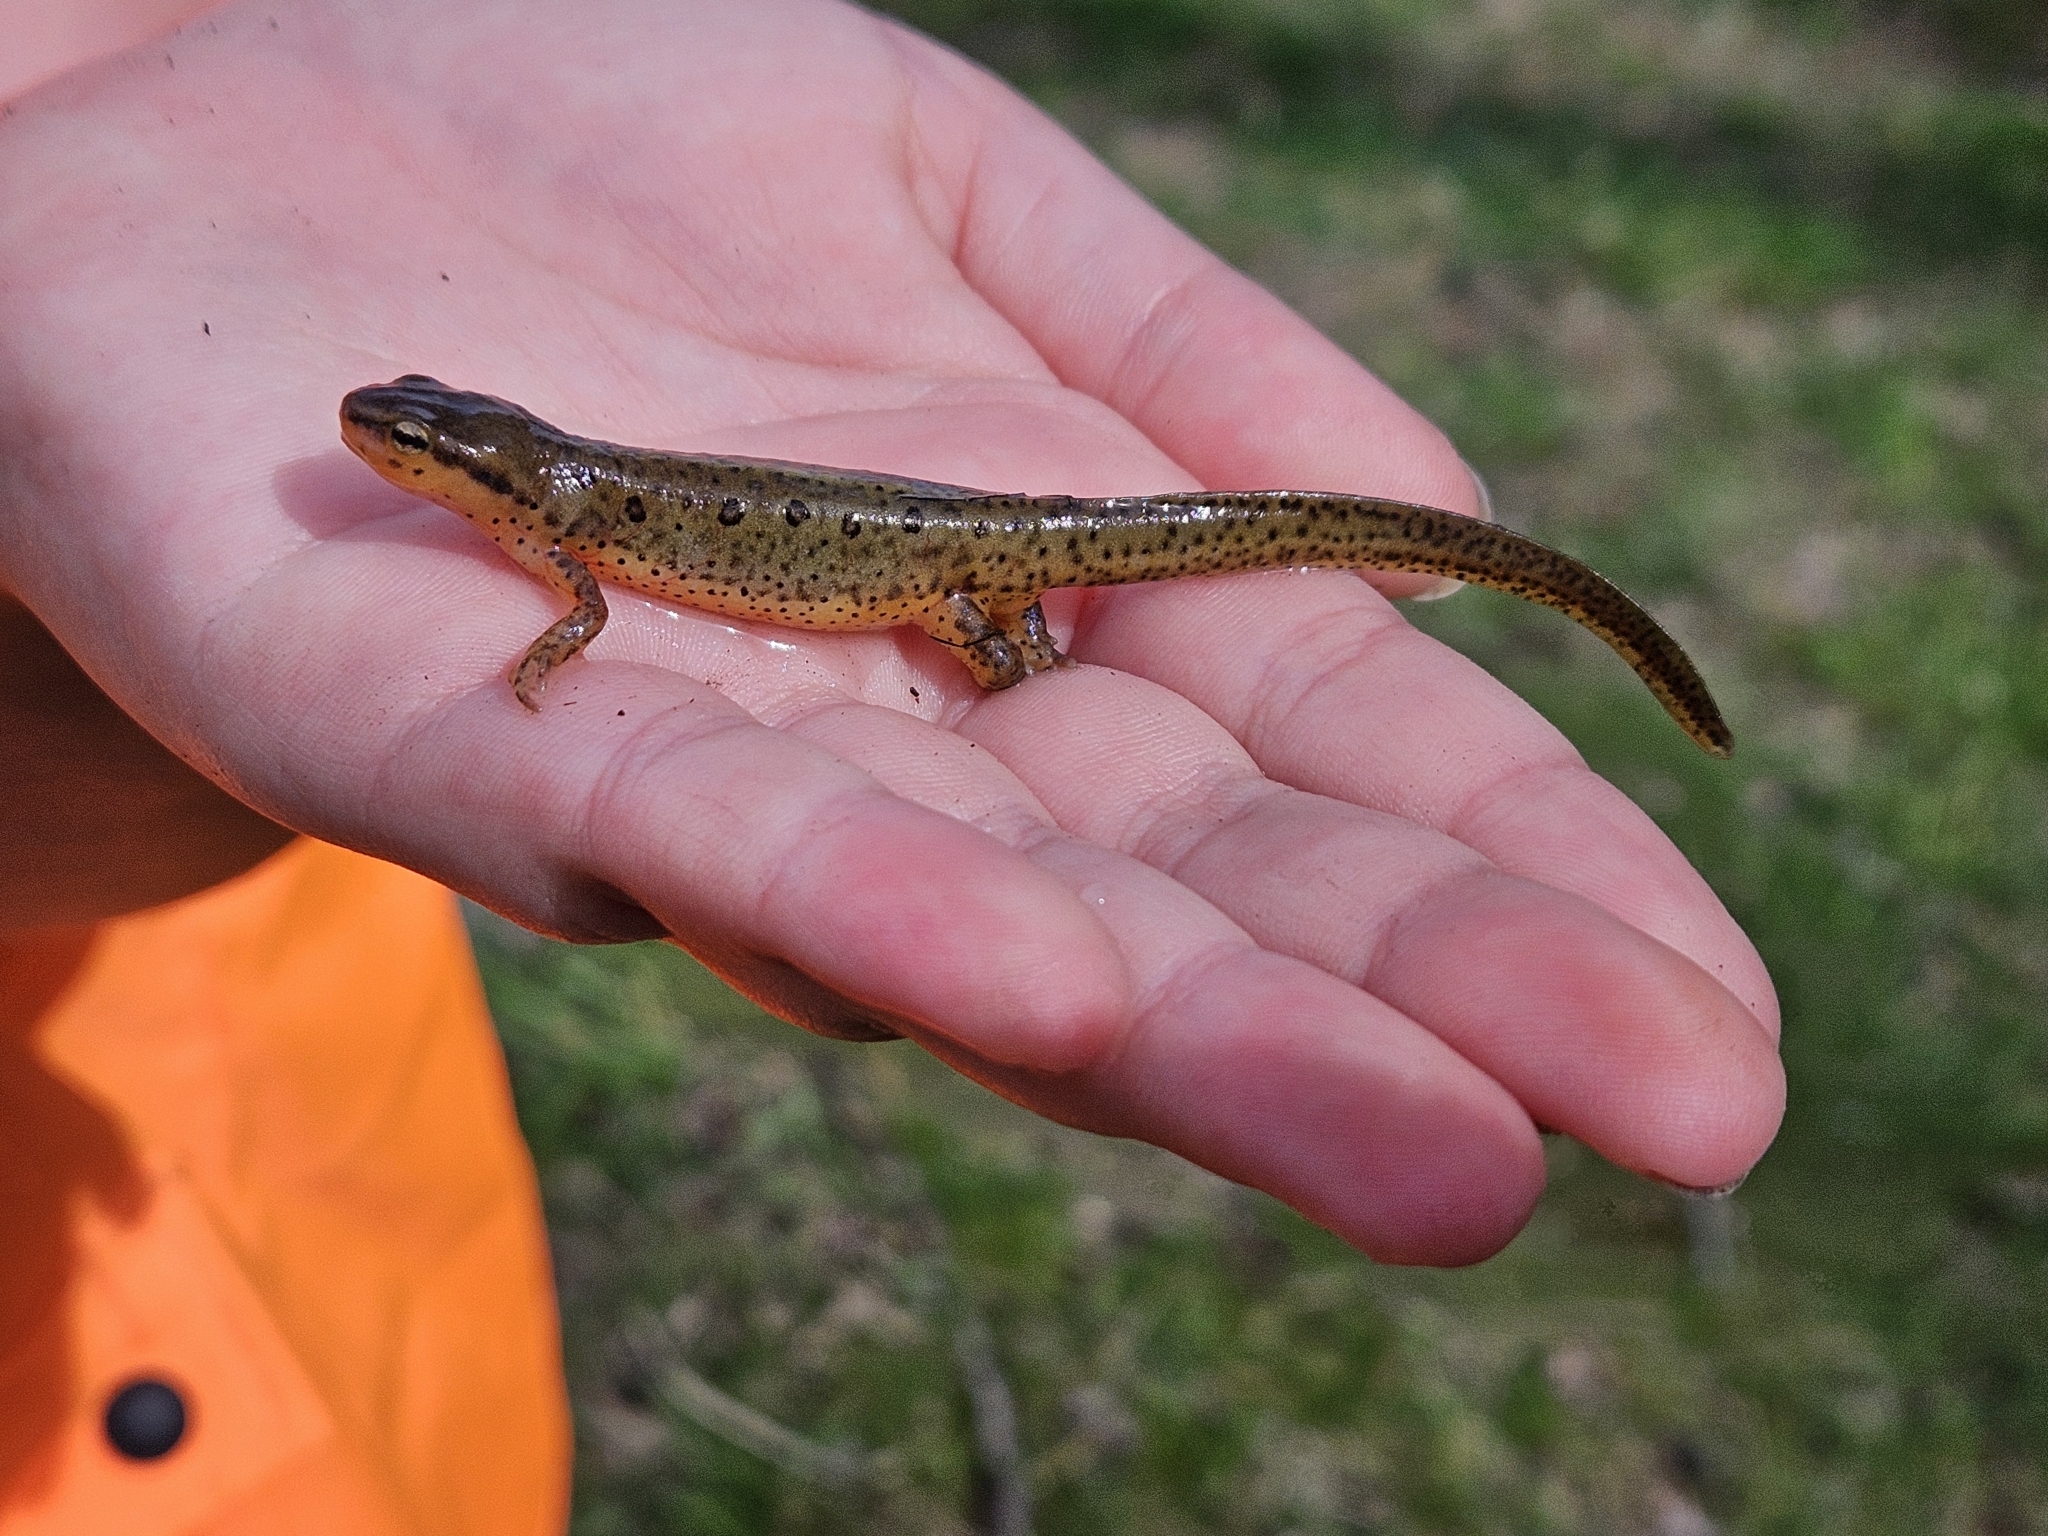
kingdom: Animalia
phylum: Chordata
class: Amphibia
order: Caudata
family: Salamandridae
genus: Notophthalmus
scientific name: Notophthalmus viridescens
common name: Eastern newt
